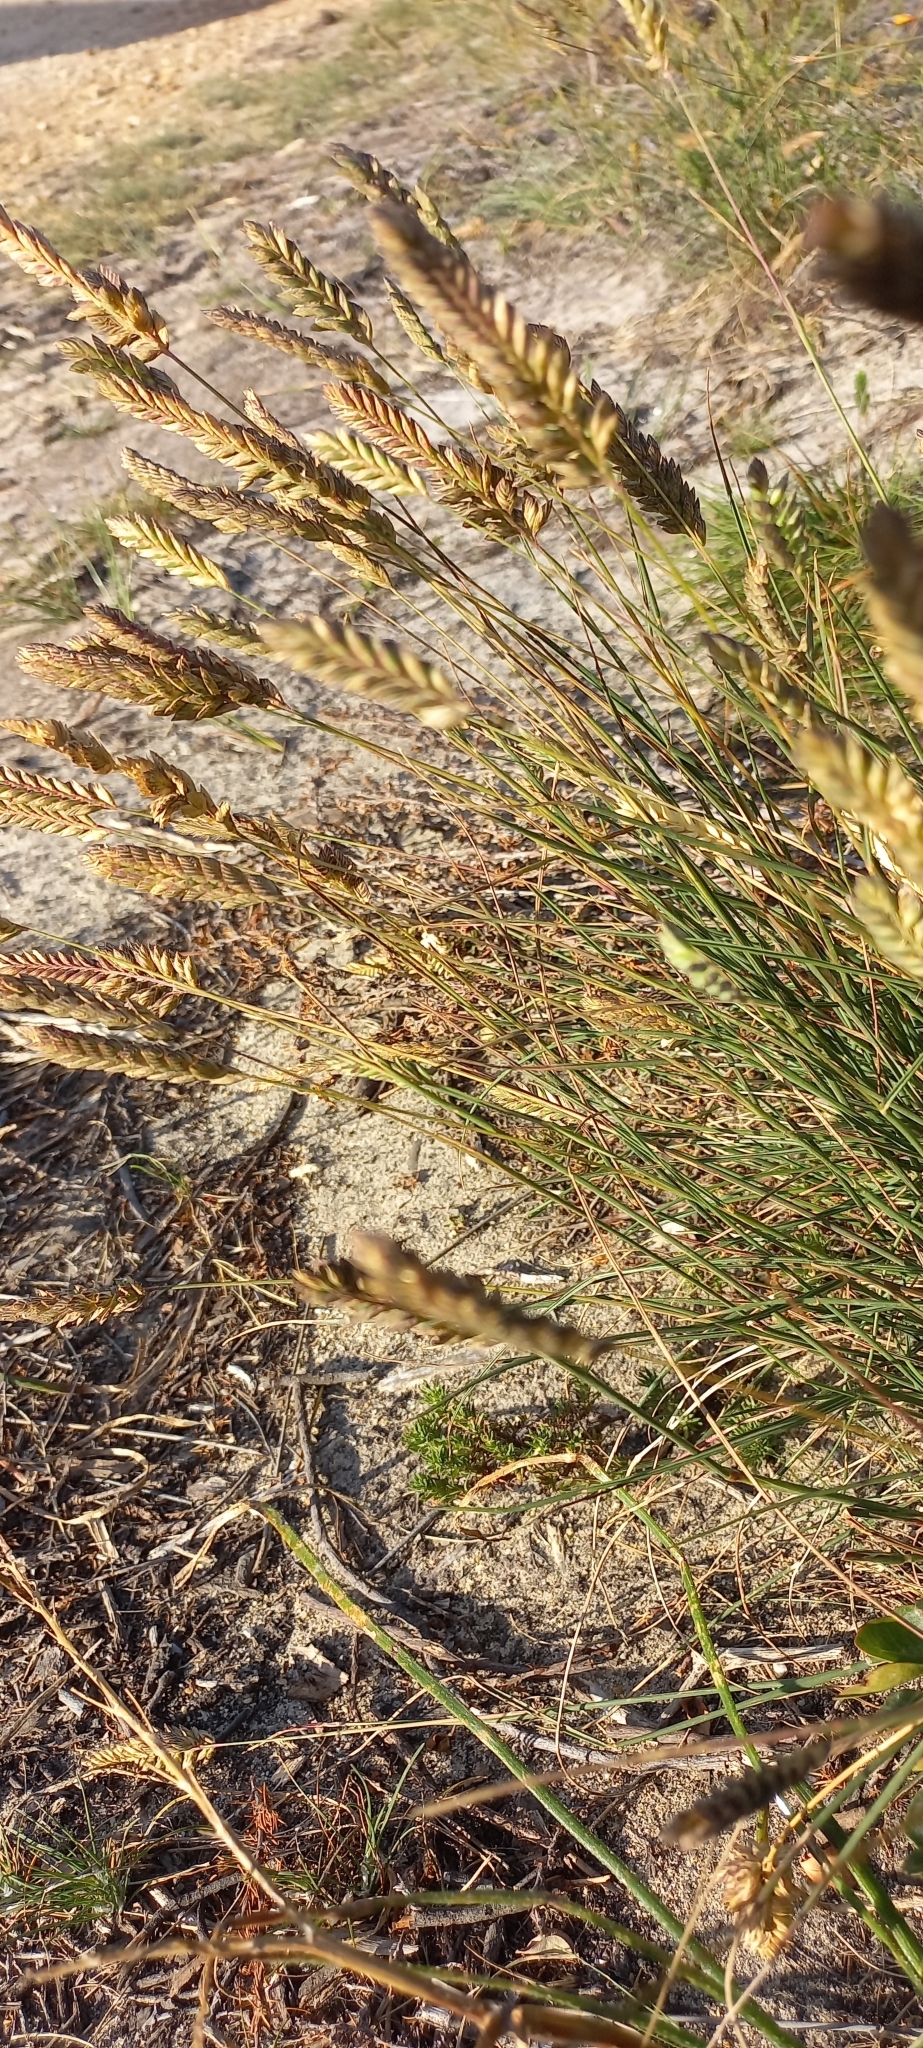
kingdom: Plantae
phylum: Tracheophyta
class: Liliopsida
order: Poales
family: Poaceae
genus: Tribolium
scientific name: Tribolium uniolae
